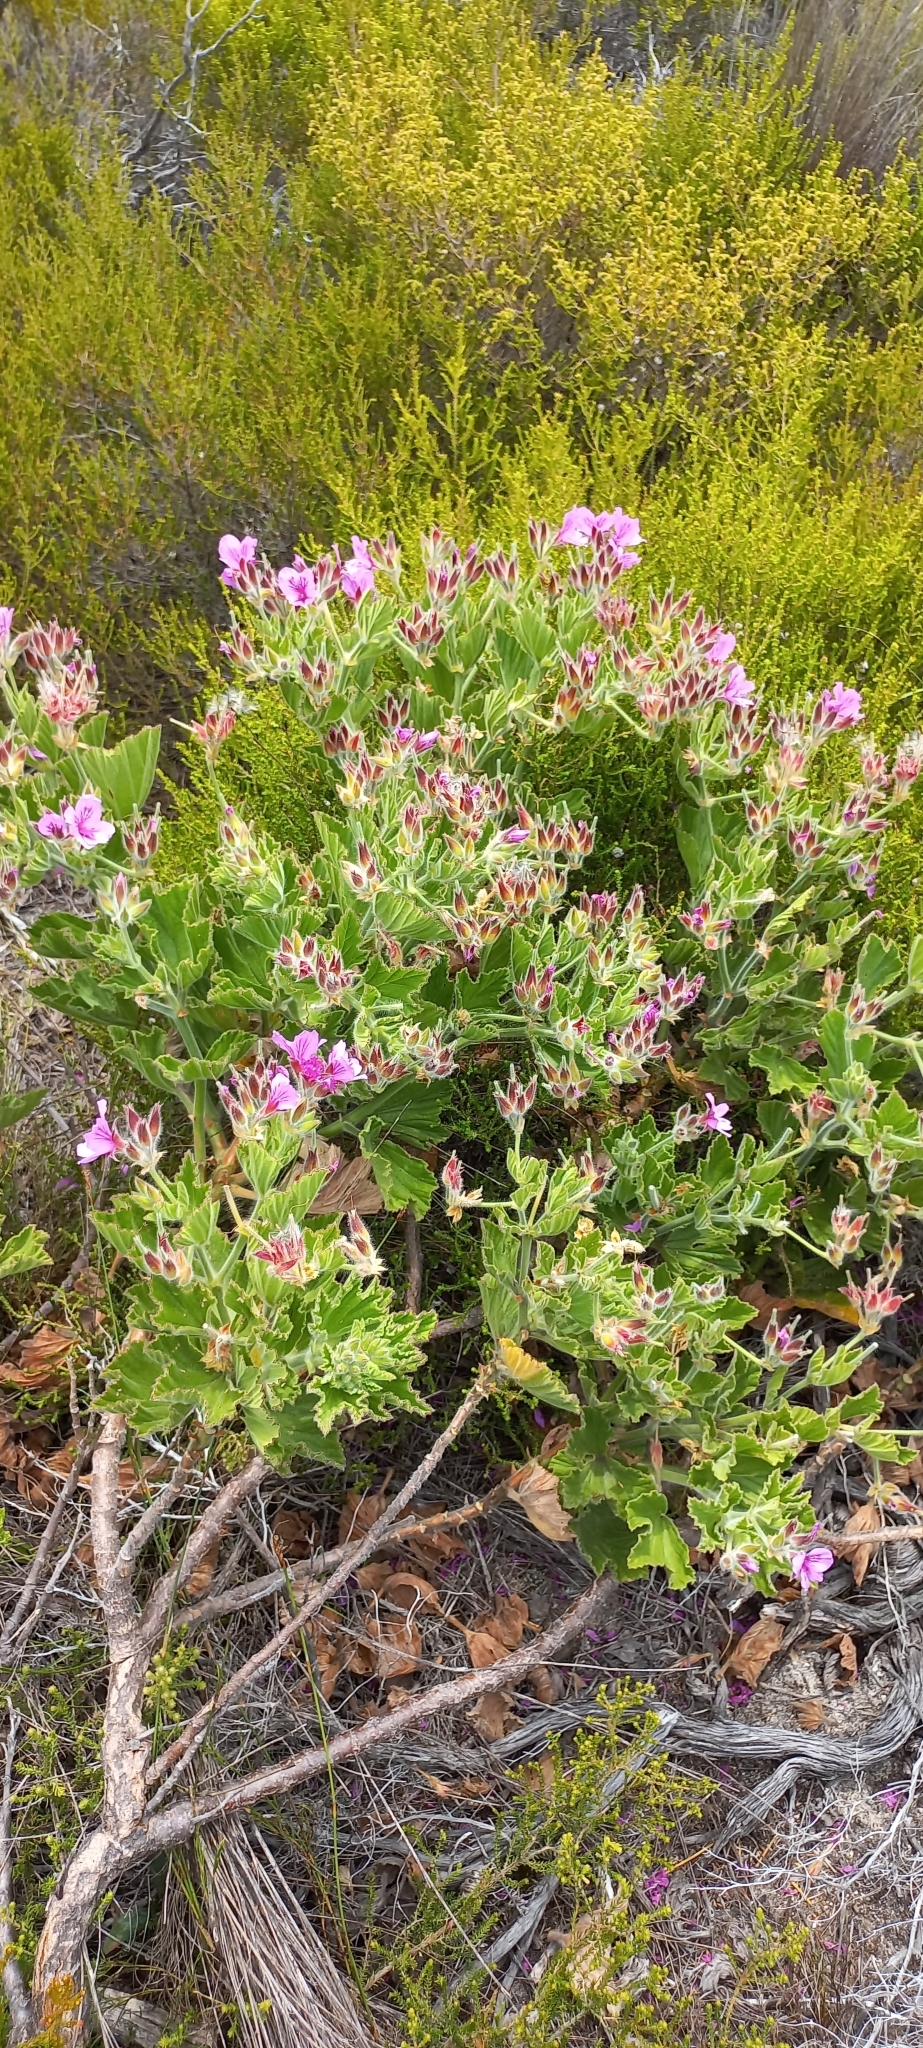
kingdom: Plantae
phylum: Tracheophyta
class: Magnoliopsida
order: Geraniales
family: Geraniaceae
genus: Pelargonium
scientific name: Pelargonium cucullatum
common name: Tree pelargonium
